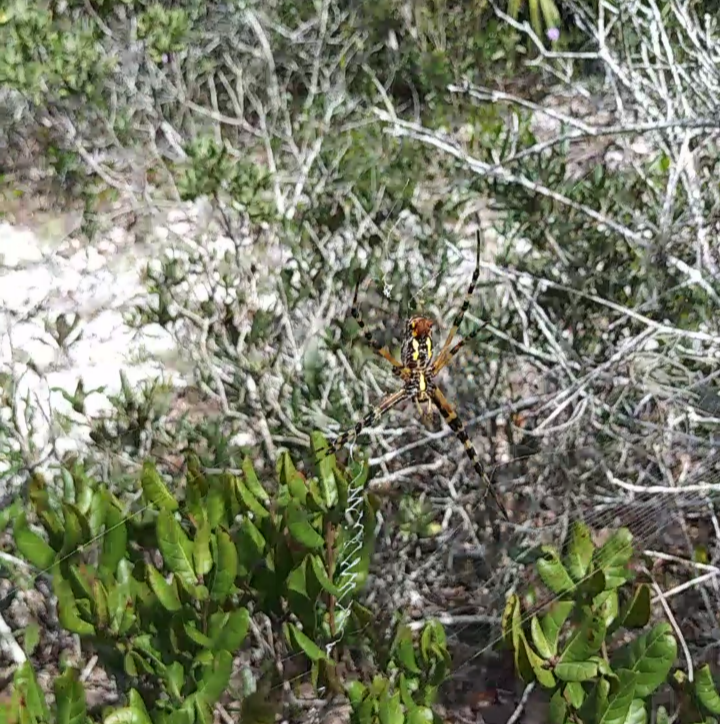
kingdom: Animalia
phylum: Arthropoda
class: Arachnida
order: Araneae
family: Araneidae
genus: Argiope
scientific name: Argiope aurantia
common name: Orb weavers
